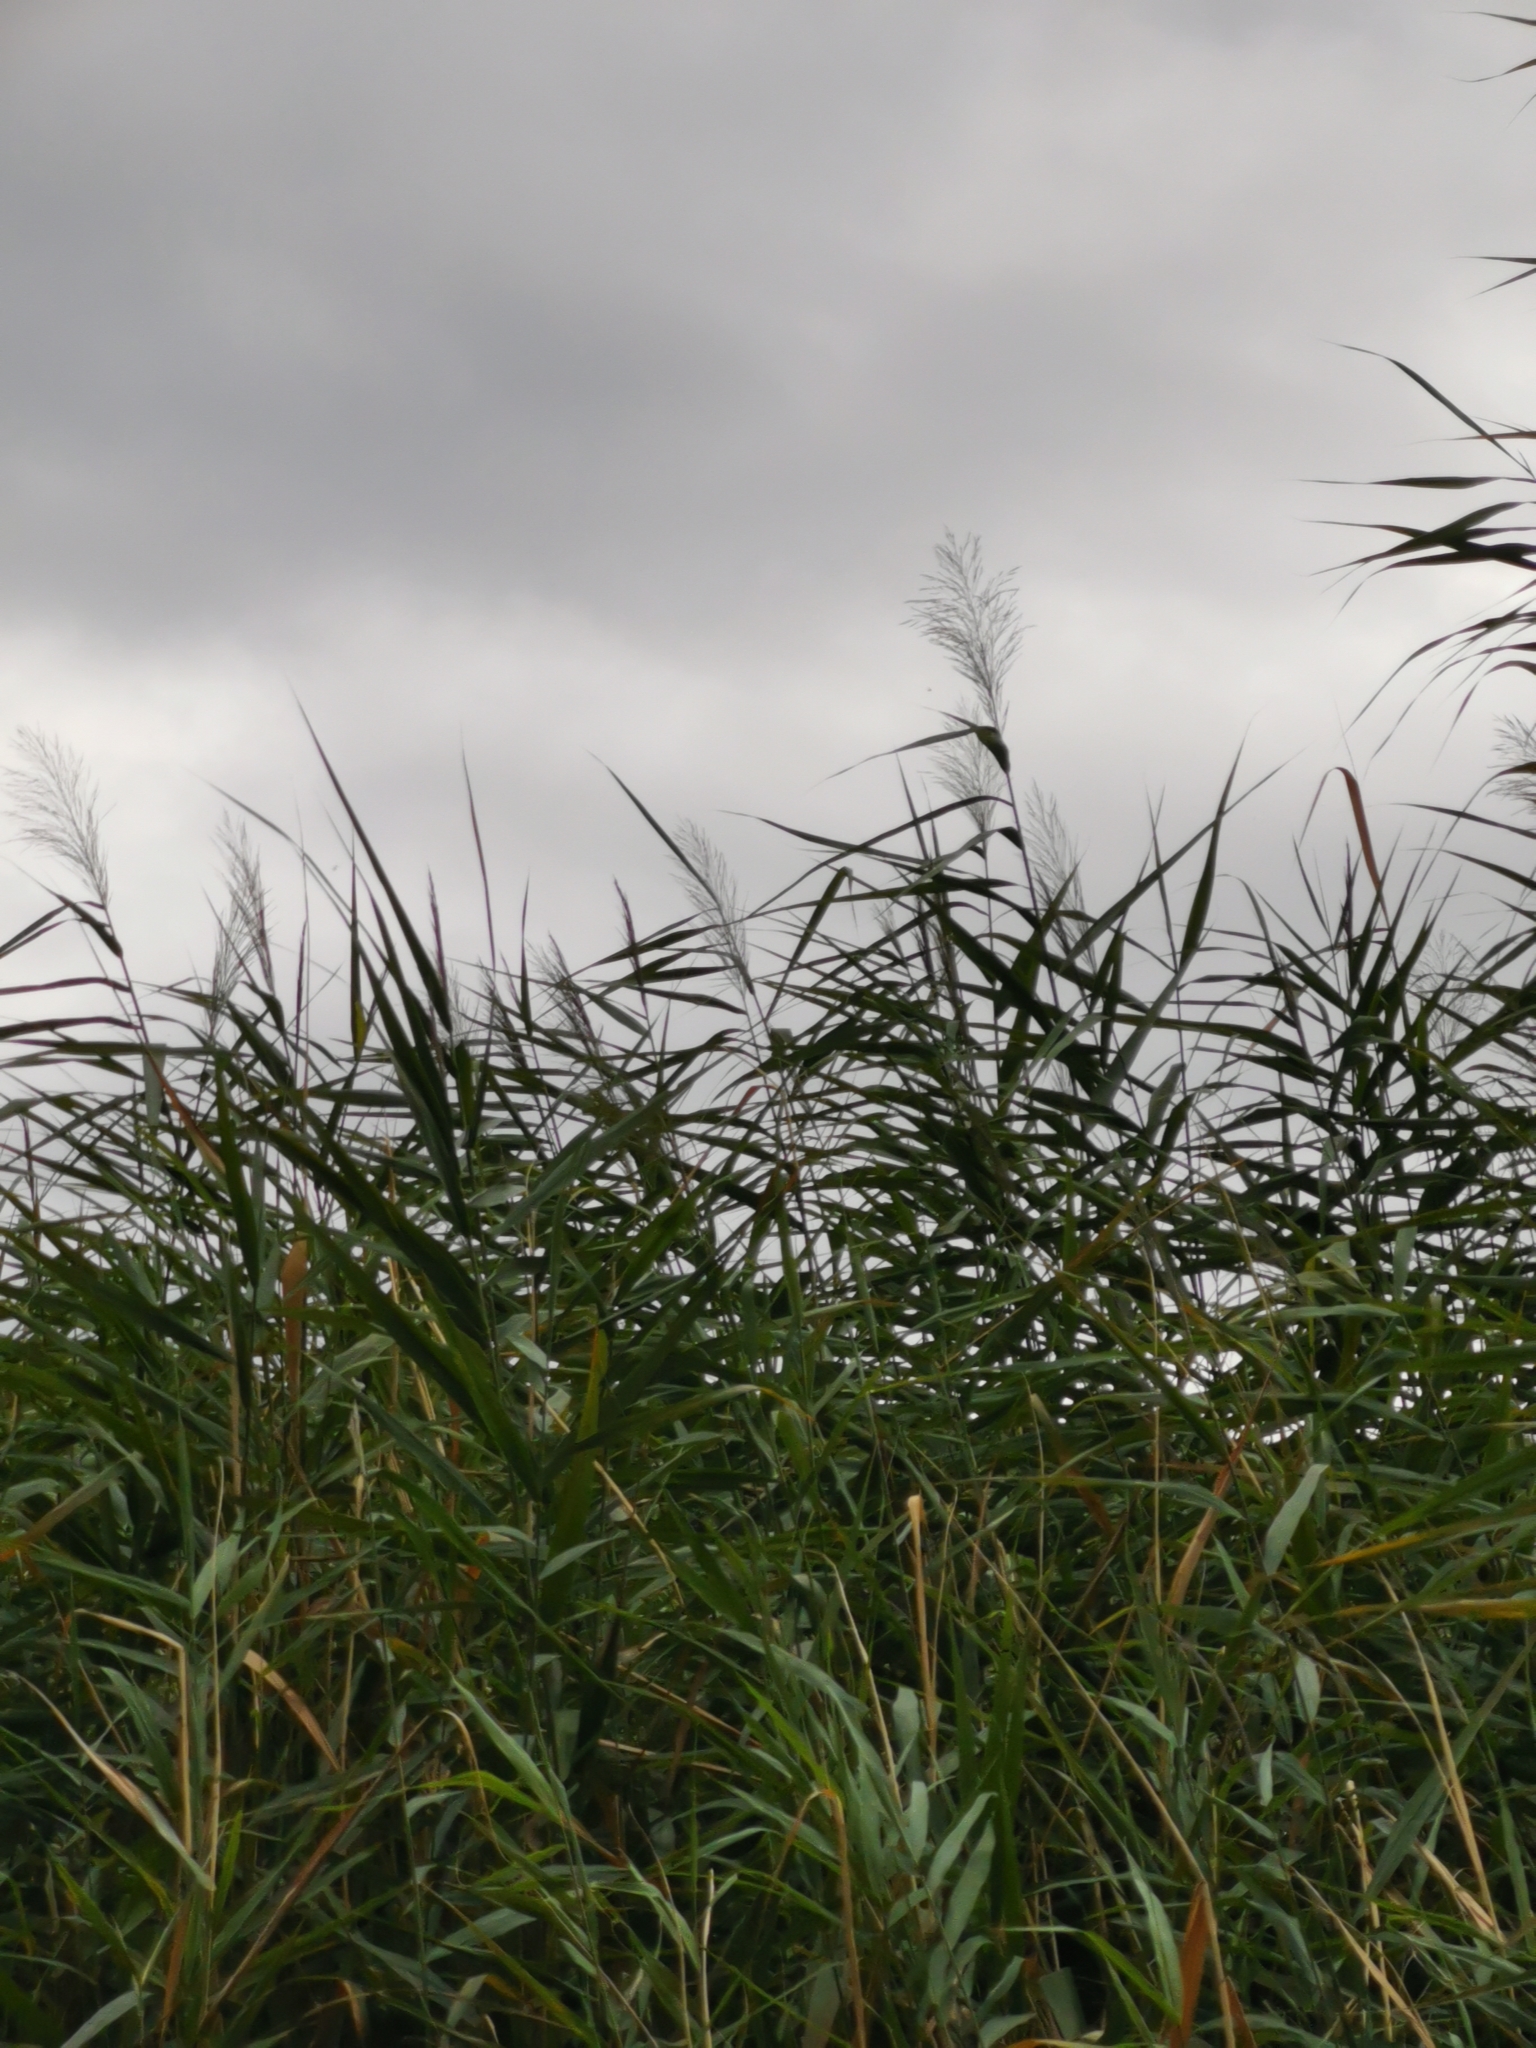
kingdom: Plantae
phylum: Tracheophyta
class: Liliopsida
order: Poales
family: Poaceae
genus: Phragmites
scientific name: Phragmites australis
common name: Common reed
